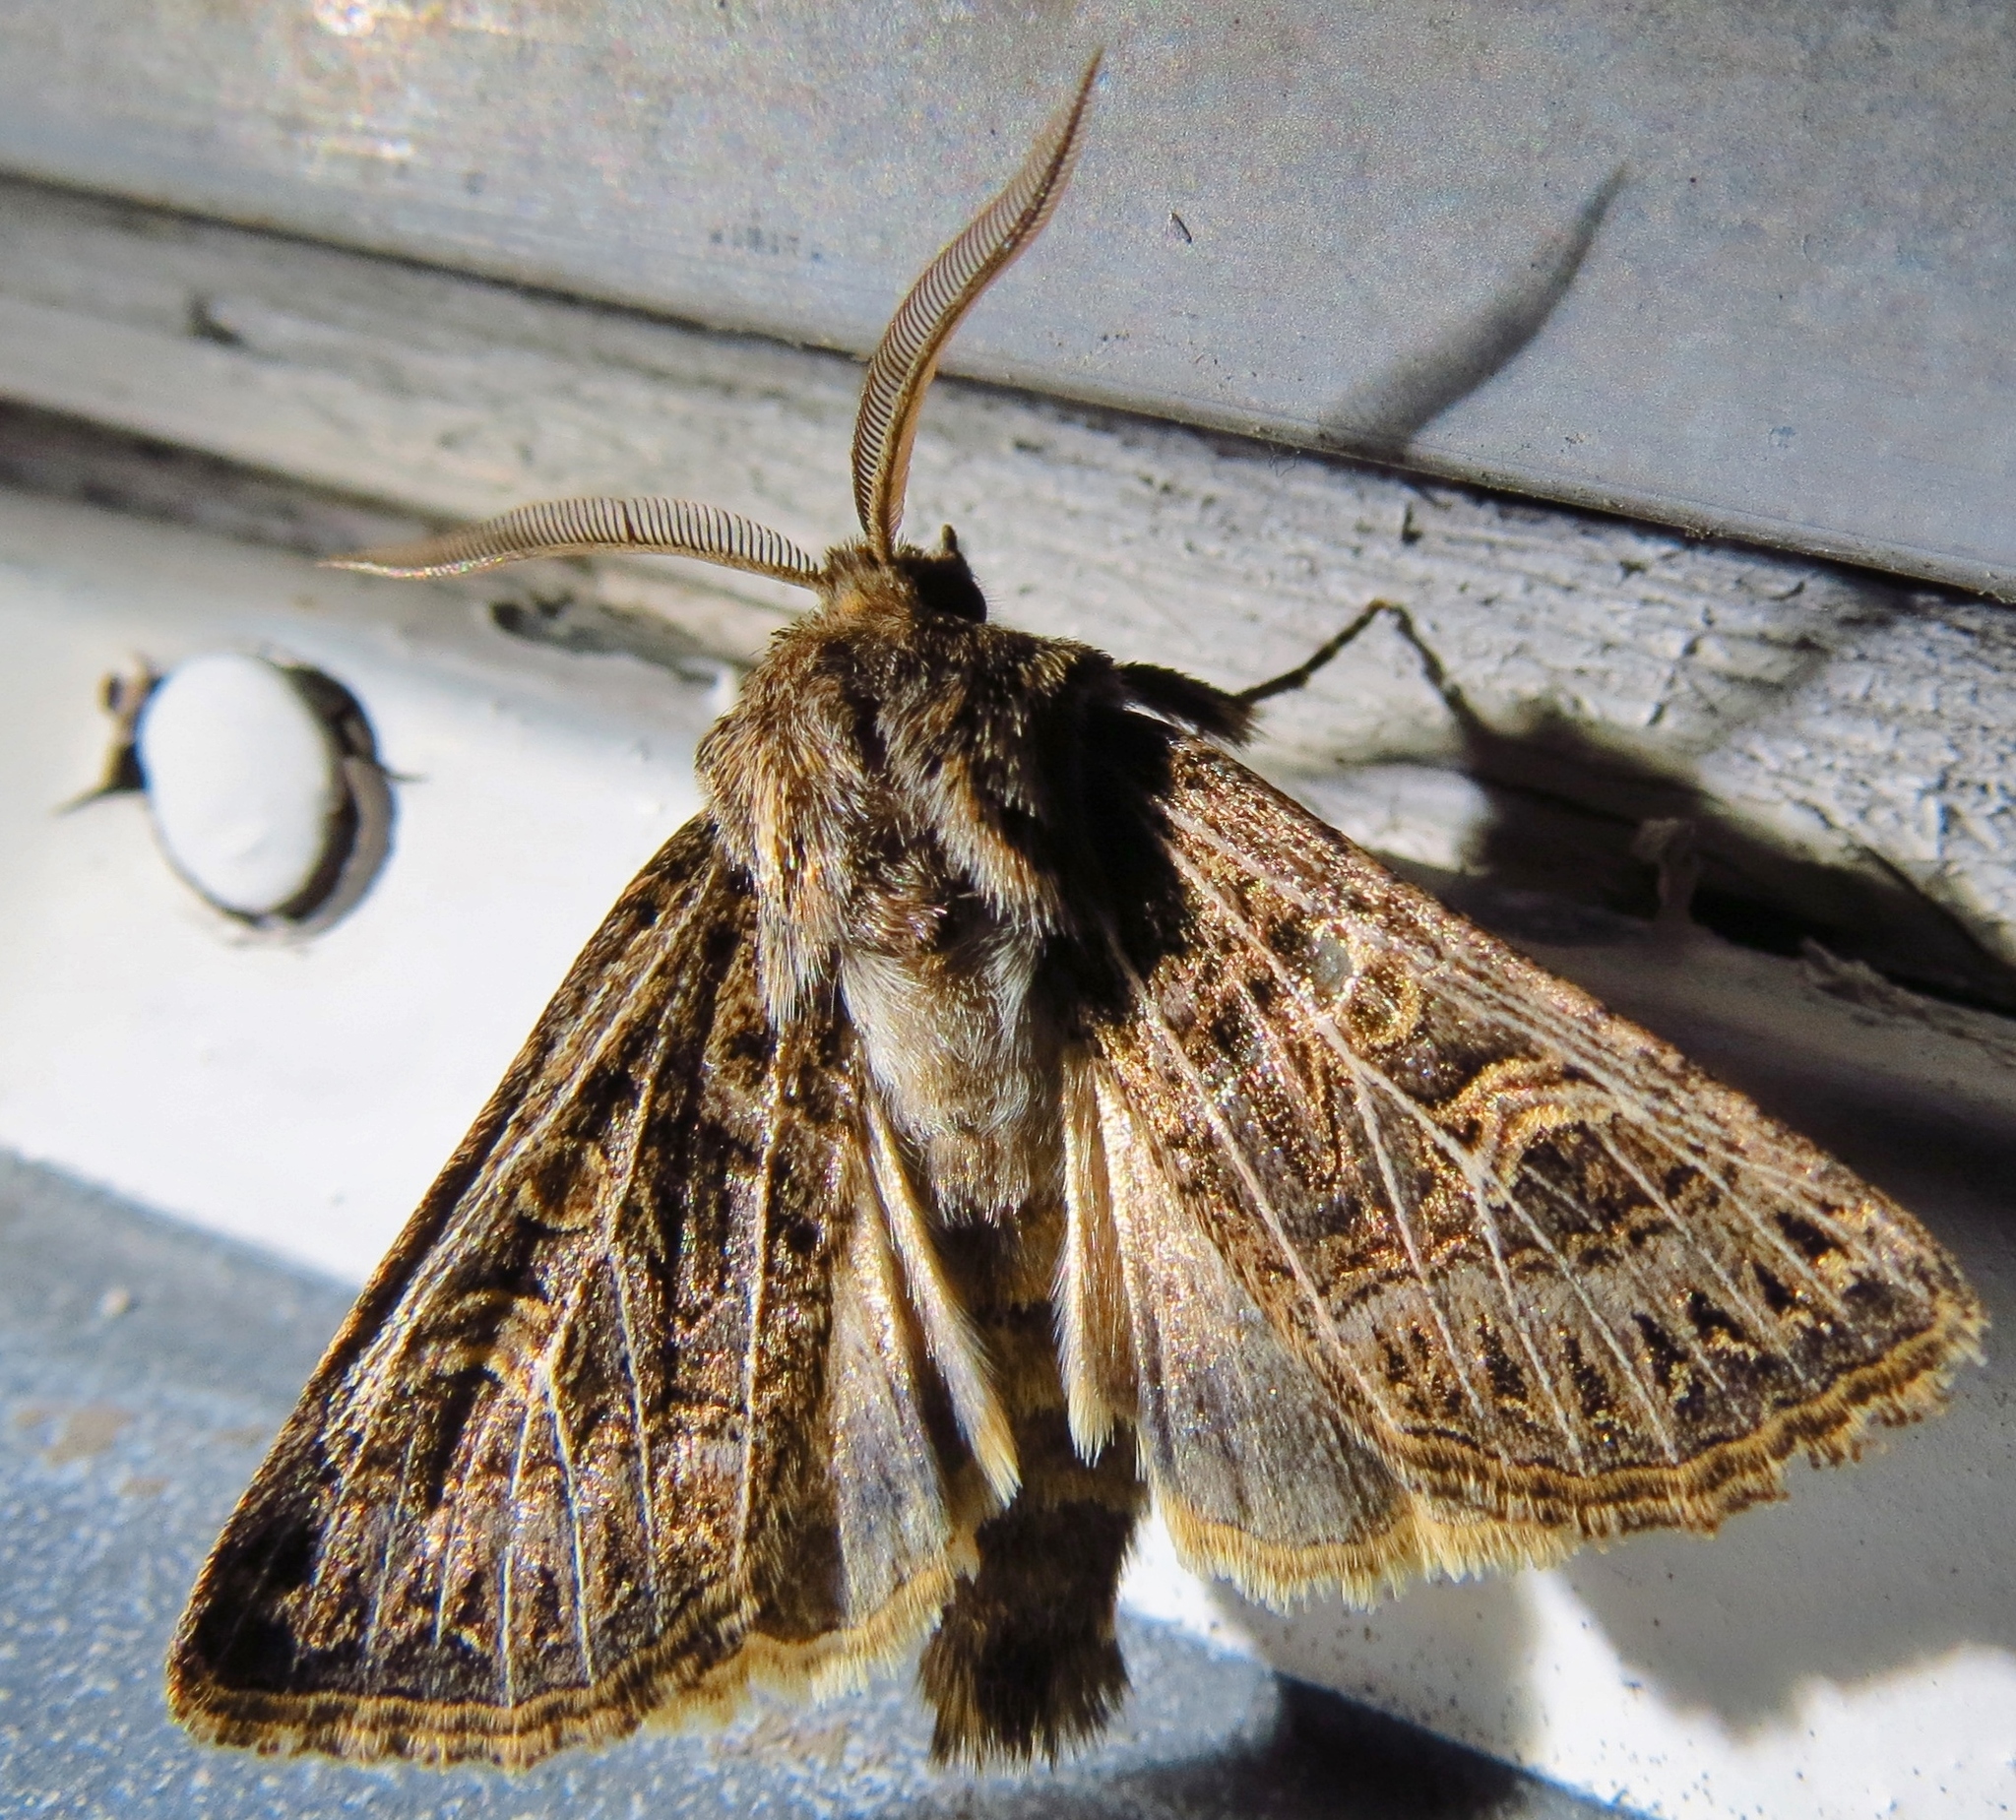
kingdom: Animalia
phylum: Arthropoda
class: Insecta
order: Lepidoptera
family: Noctuidae
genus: Tholera
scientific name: Tholera decimalis
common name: Feathered gothic
